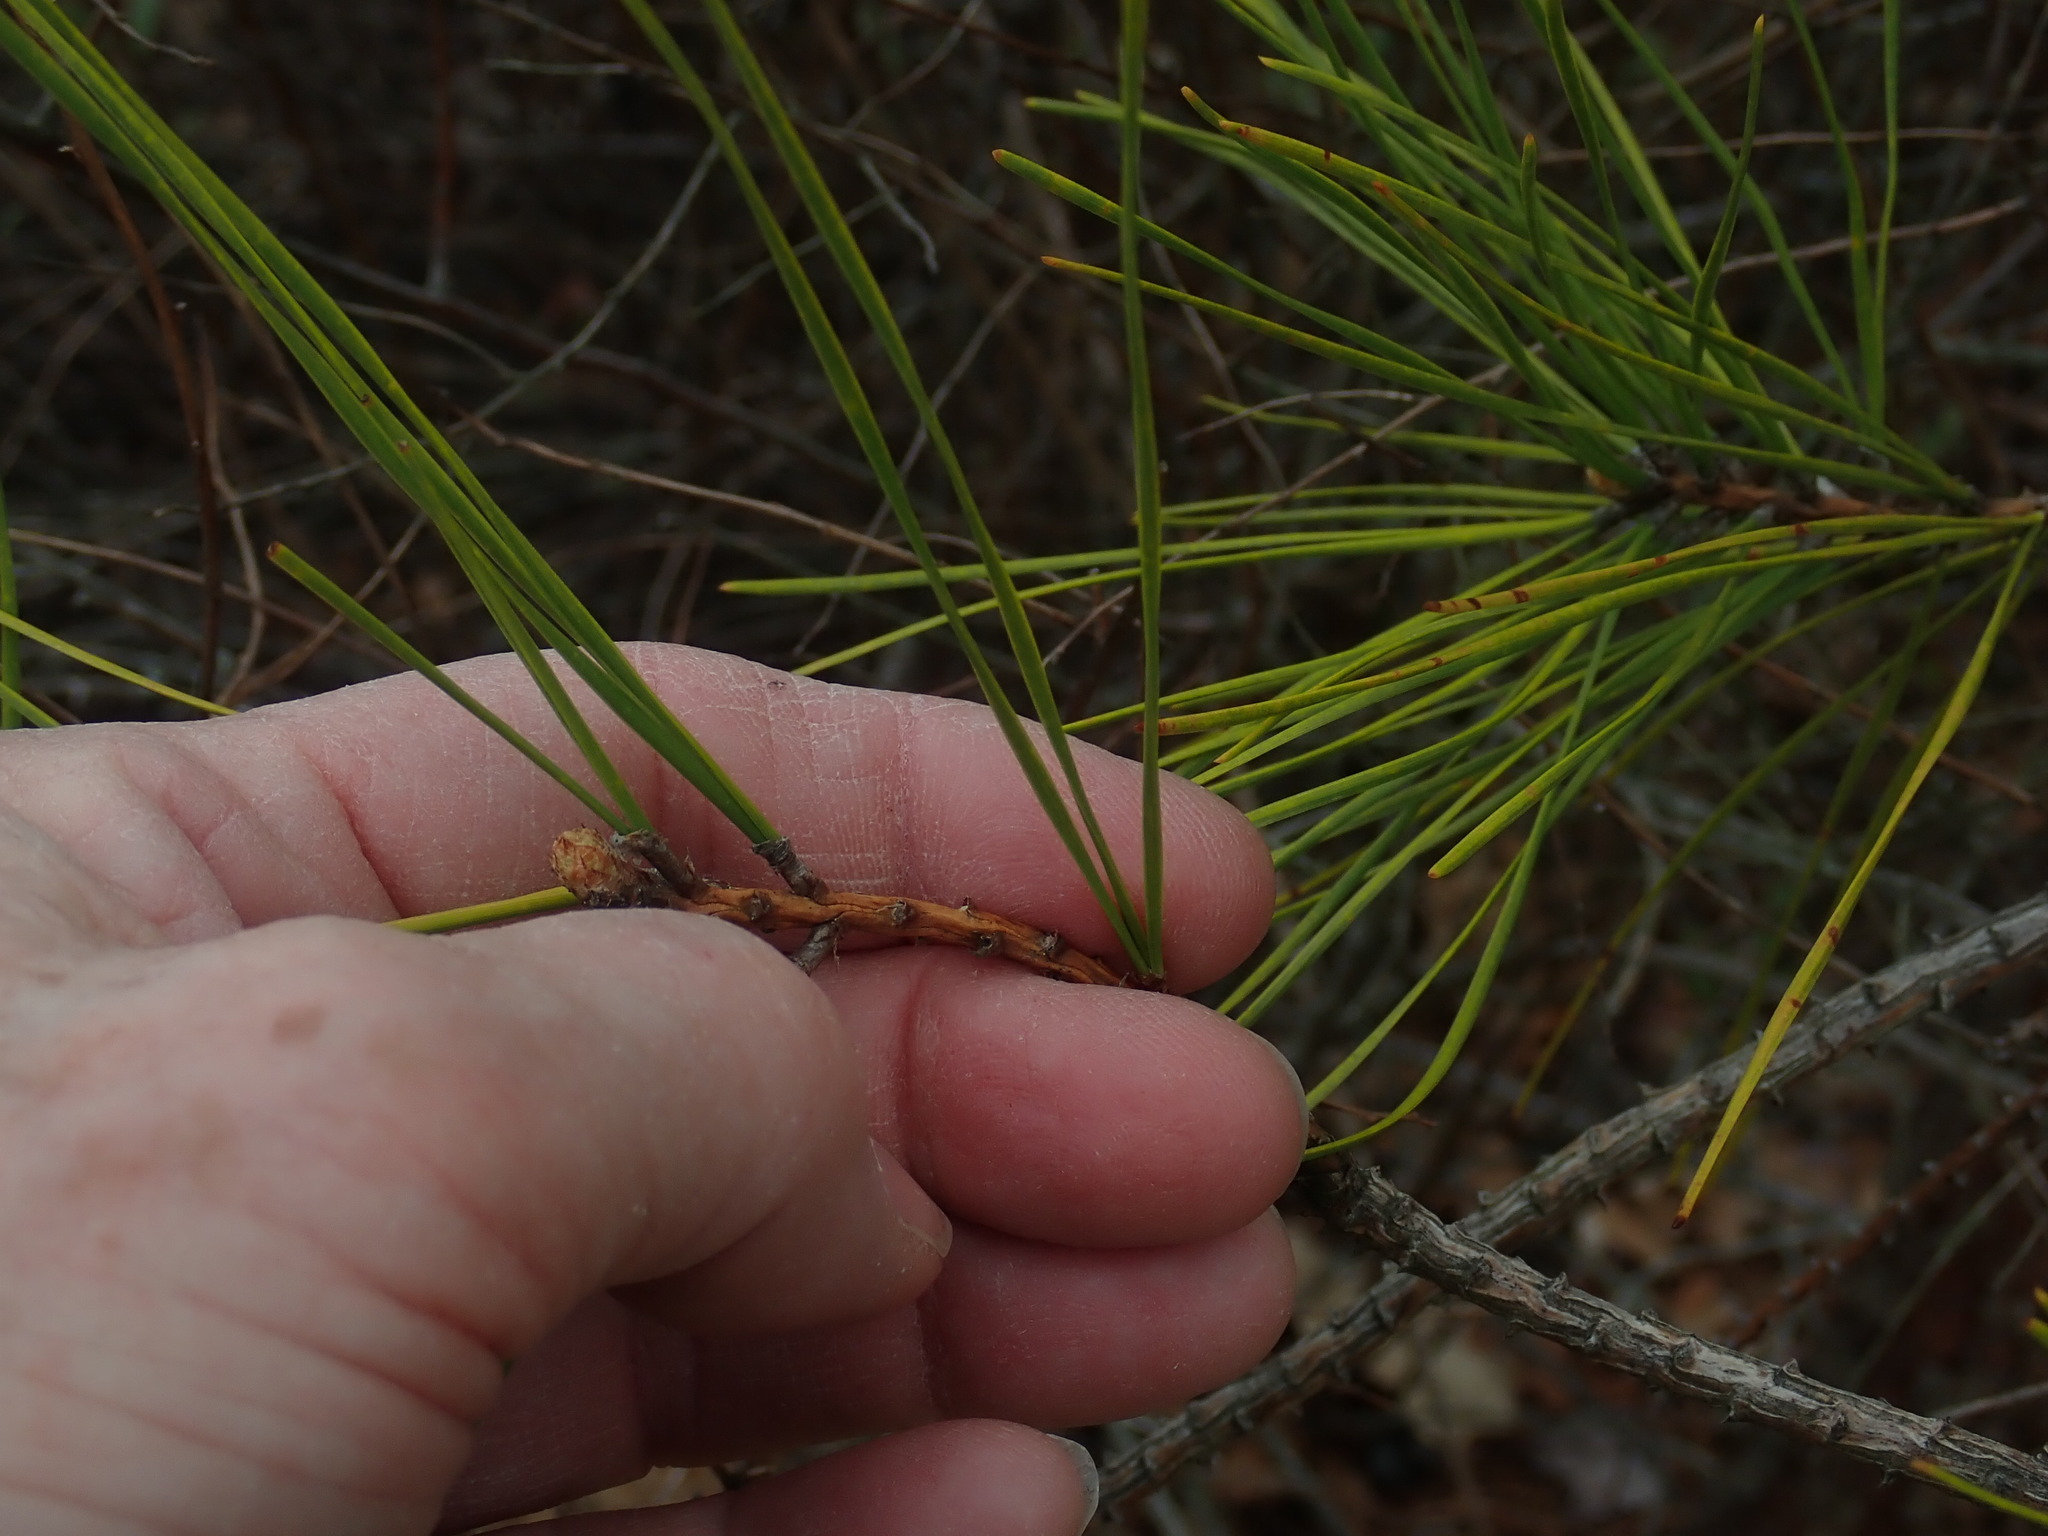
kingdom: Plantae
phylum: Tracheophyta
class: Pinopsida
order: Pinales
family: Pinaceae
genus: Pinus
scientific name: Pinus rigida
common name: Pitch pine
